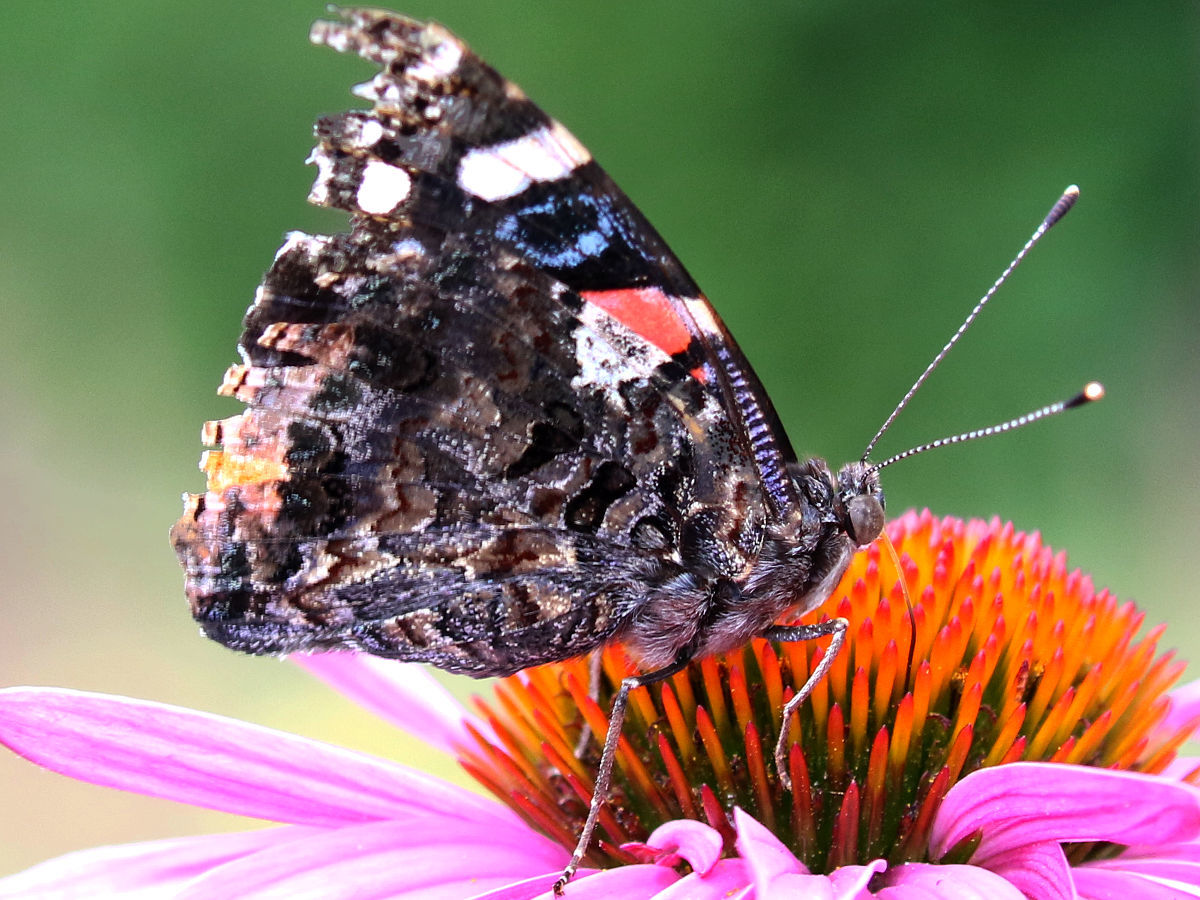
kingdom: Animalia
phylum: Arthropoda
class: Insecta
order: Lepidoptera
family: Nymphalidae
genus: Vanessa
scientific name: Vanessa atalanta
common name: Red admiral
